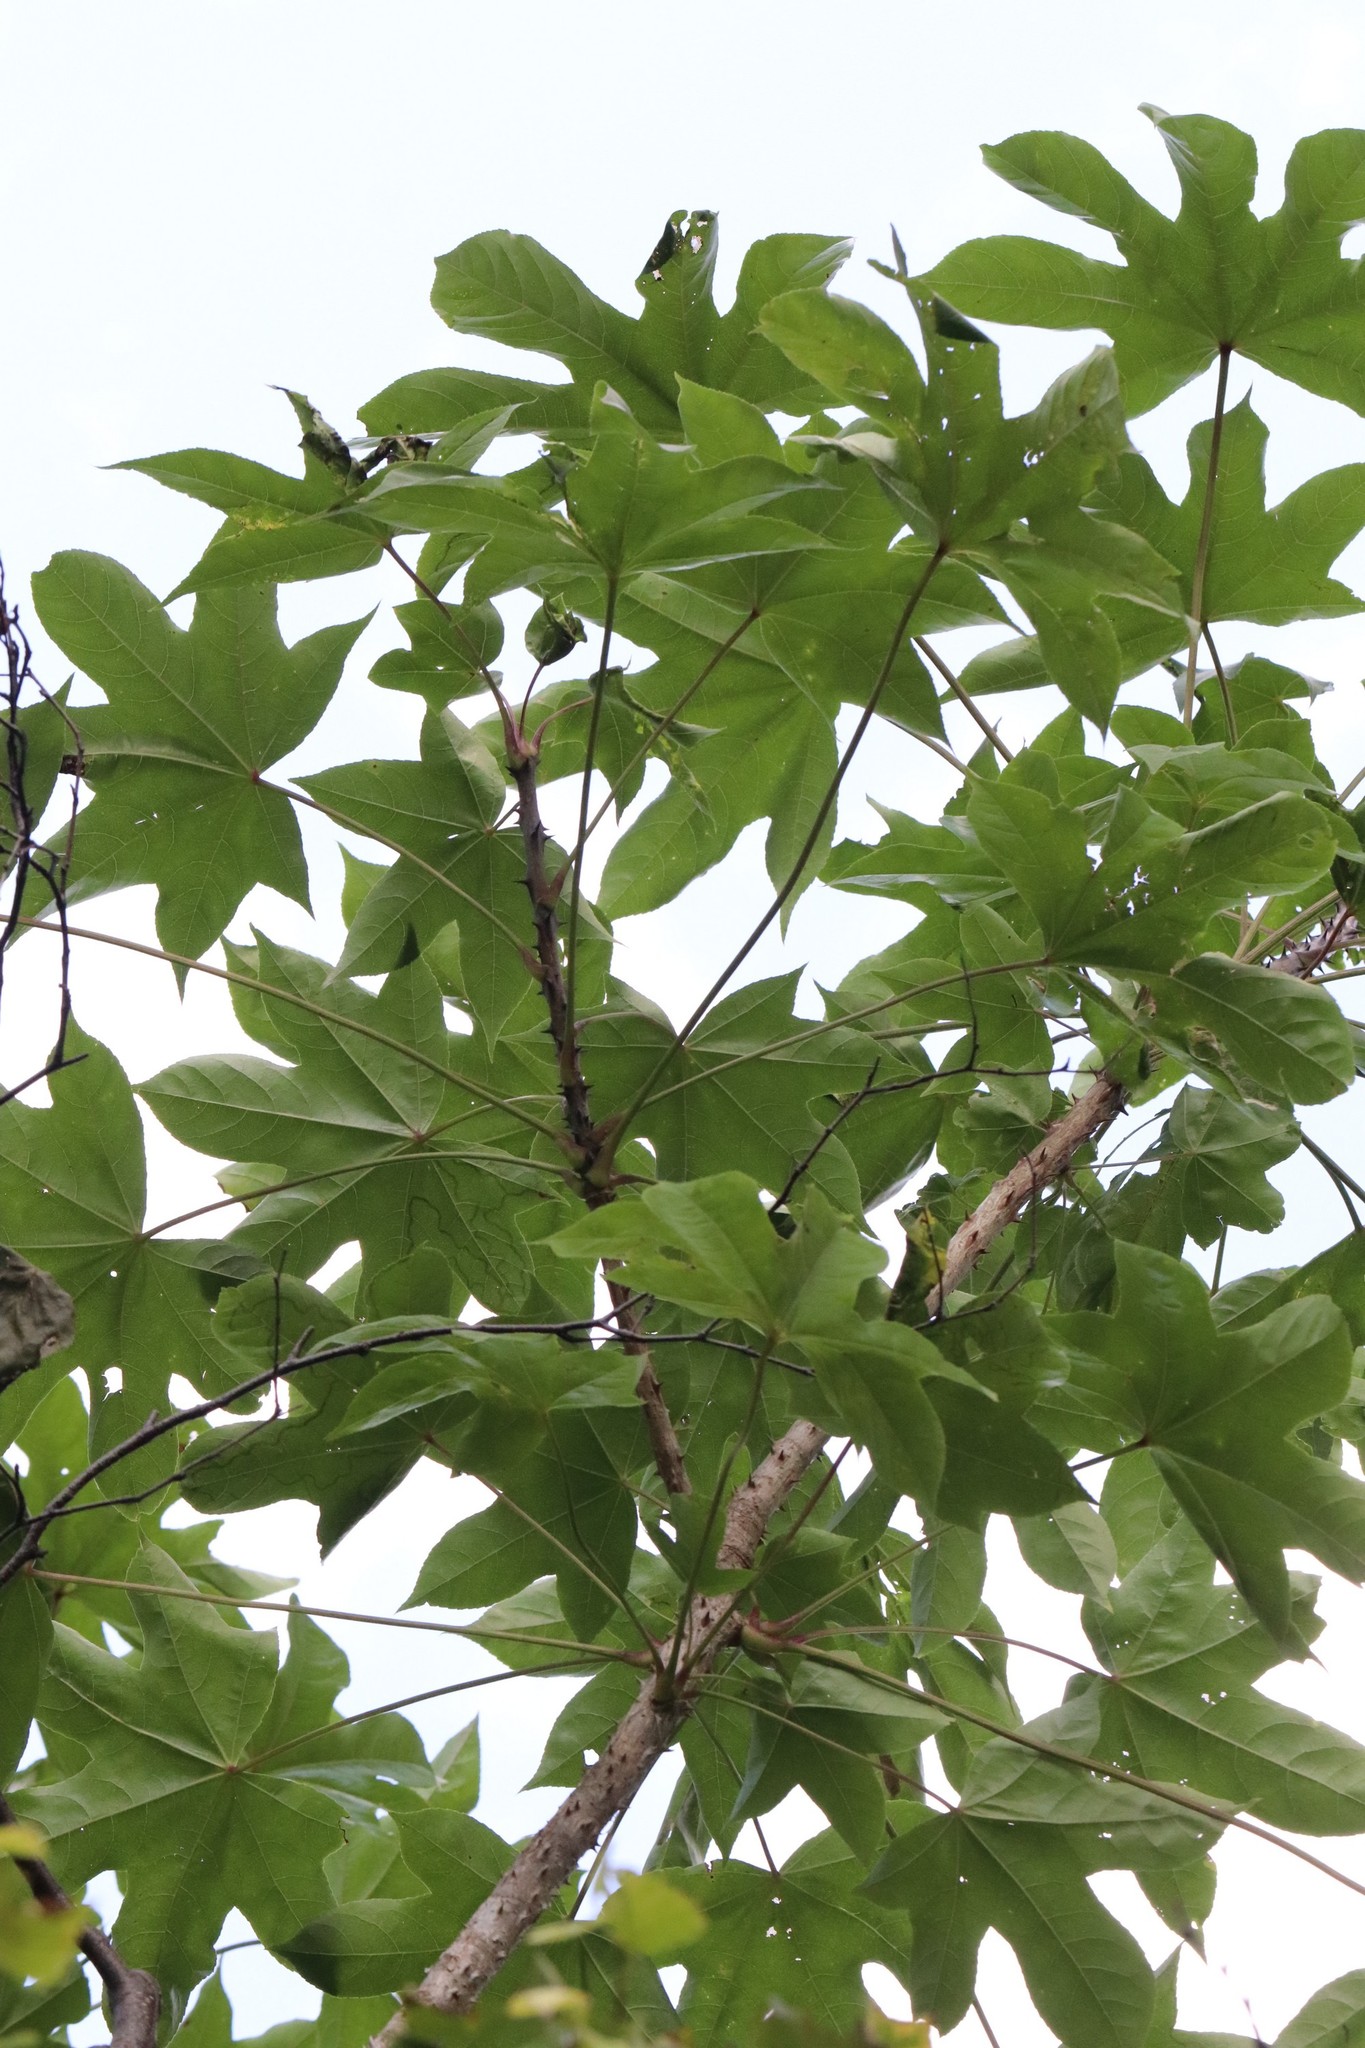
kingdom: Plantae
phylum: Tracheophyta
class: Magnoliopsida
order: Apiales
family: Araliaceae
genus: Kalopanax
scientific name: Kalopanax septemlobus
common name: Castor aralia
